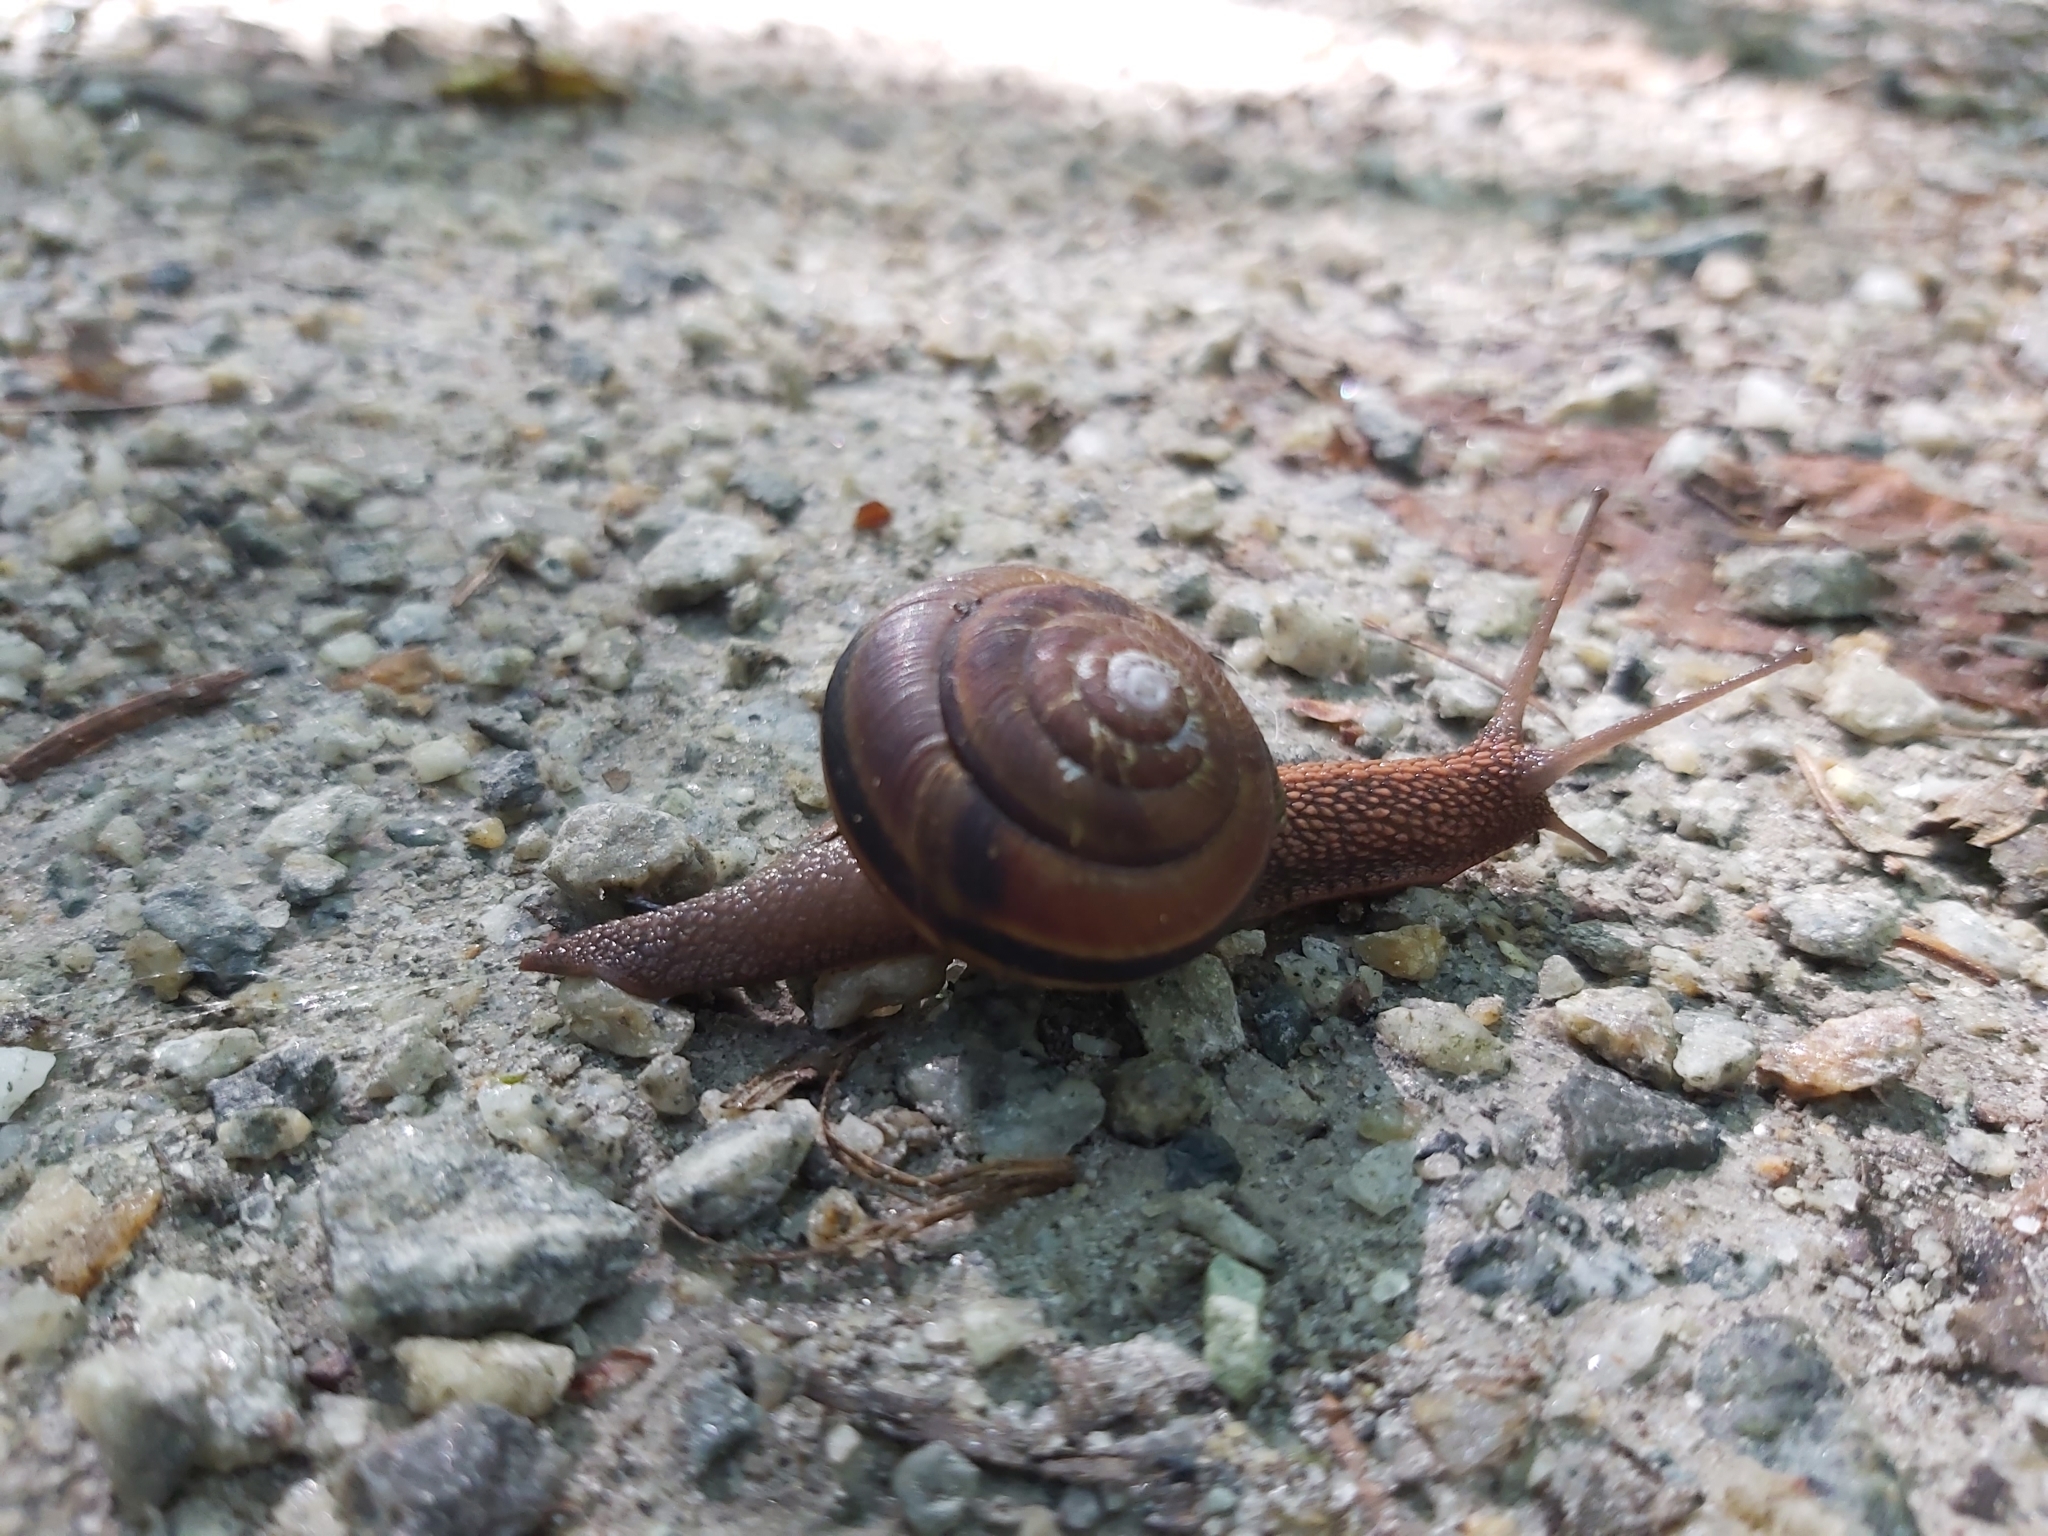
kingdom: Animalia
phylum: Mollusca
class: Gastropoda
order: Stylommatophora
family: Xanthonychidae
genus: Monadenia
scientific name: Monadenia fidelis
